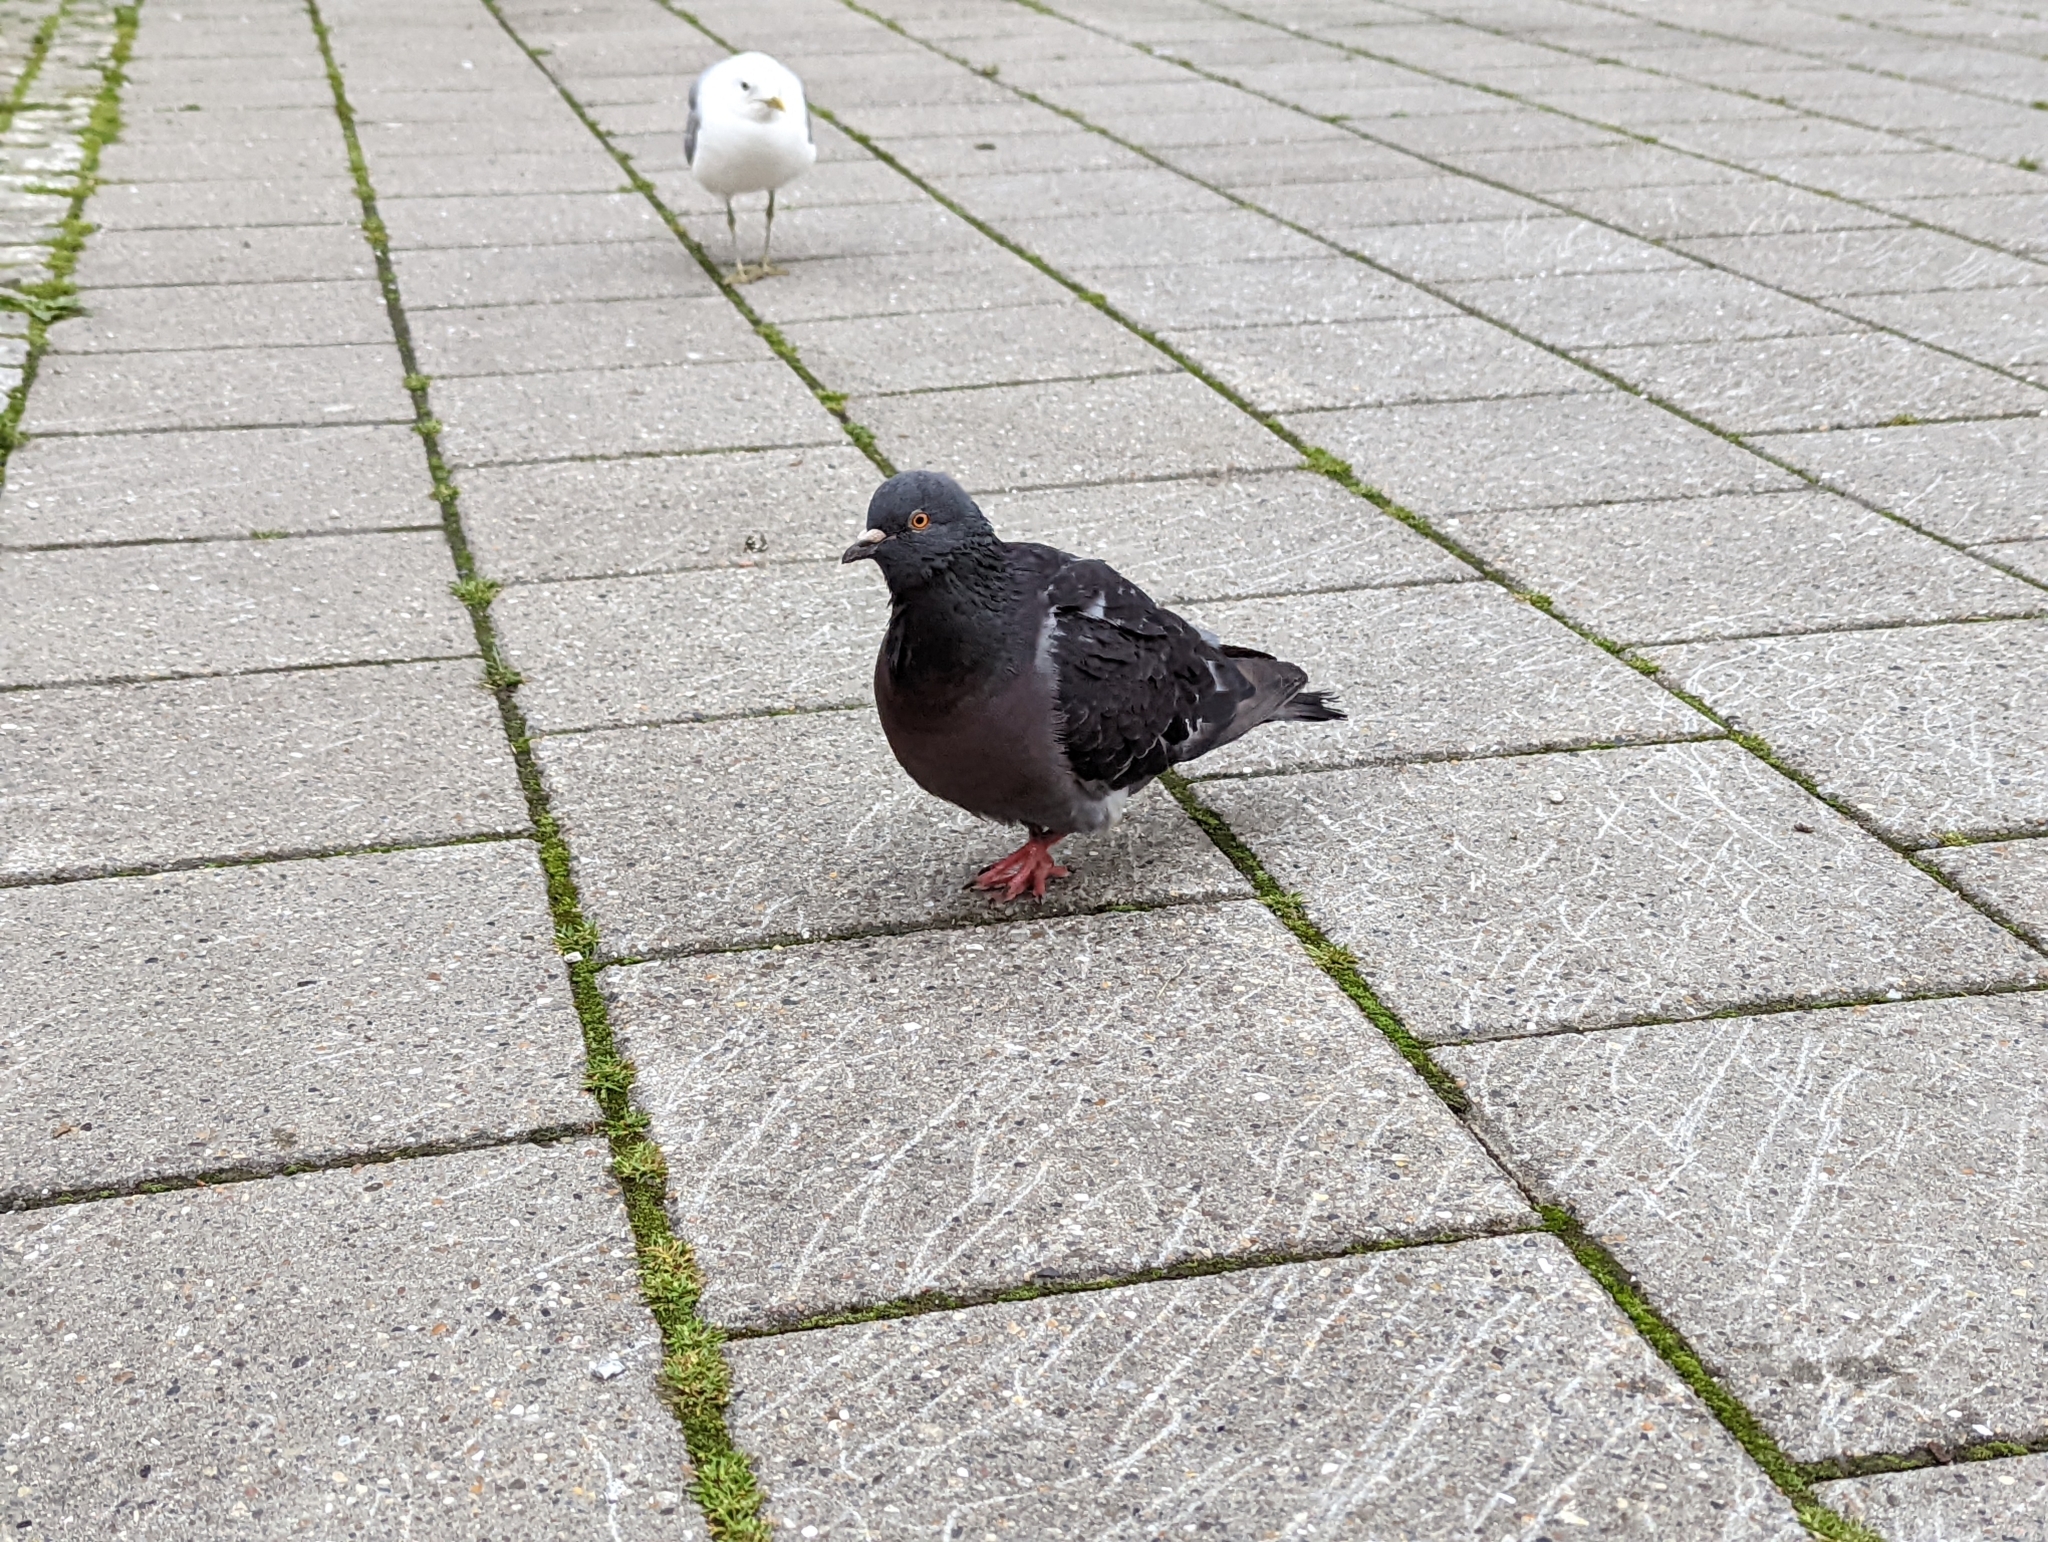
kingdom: Animalia
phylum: Chordata
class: Aves
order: Columbiformes
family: Columbidae
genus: Columba
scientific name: Columba livia
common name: Rock pigeon
